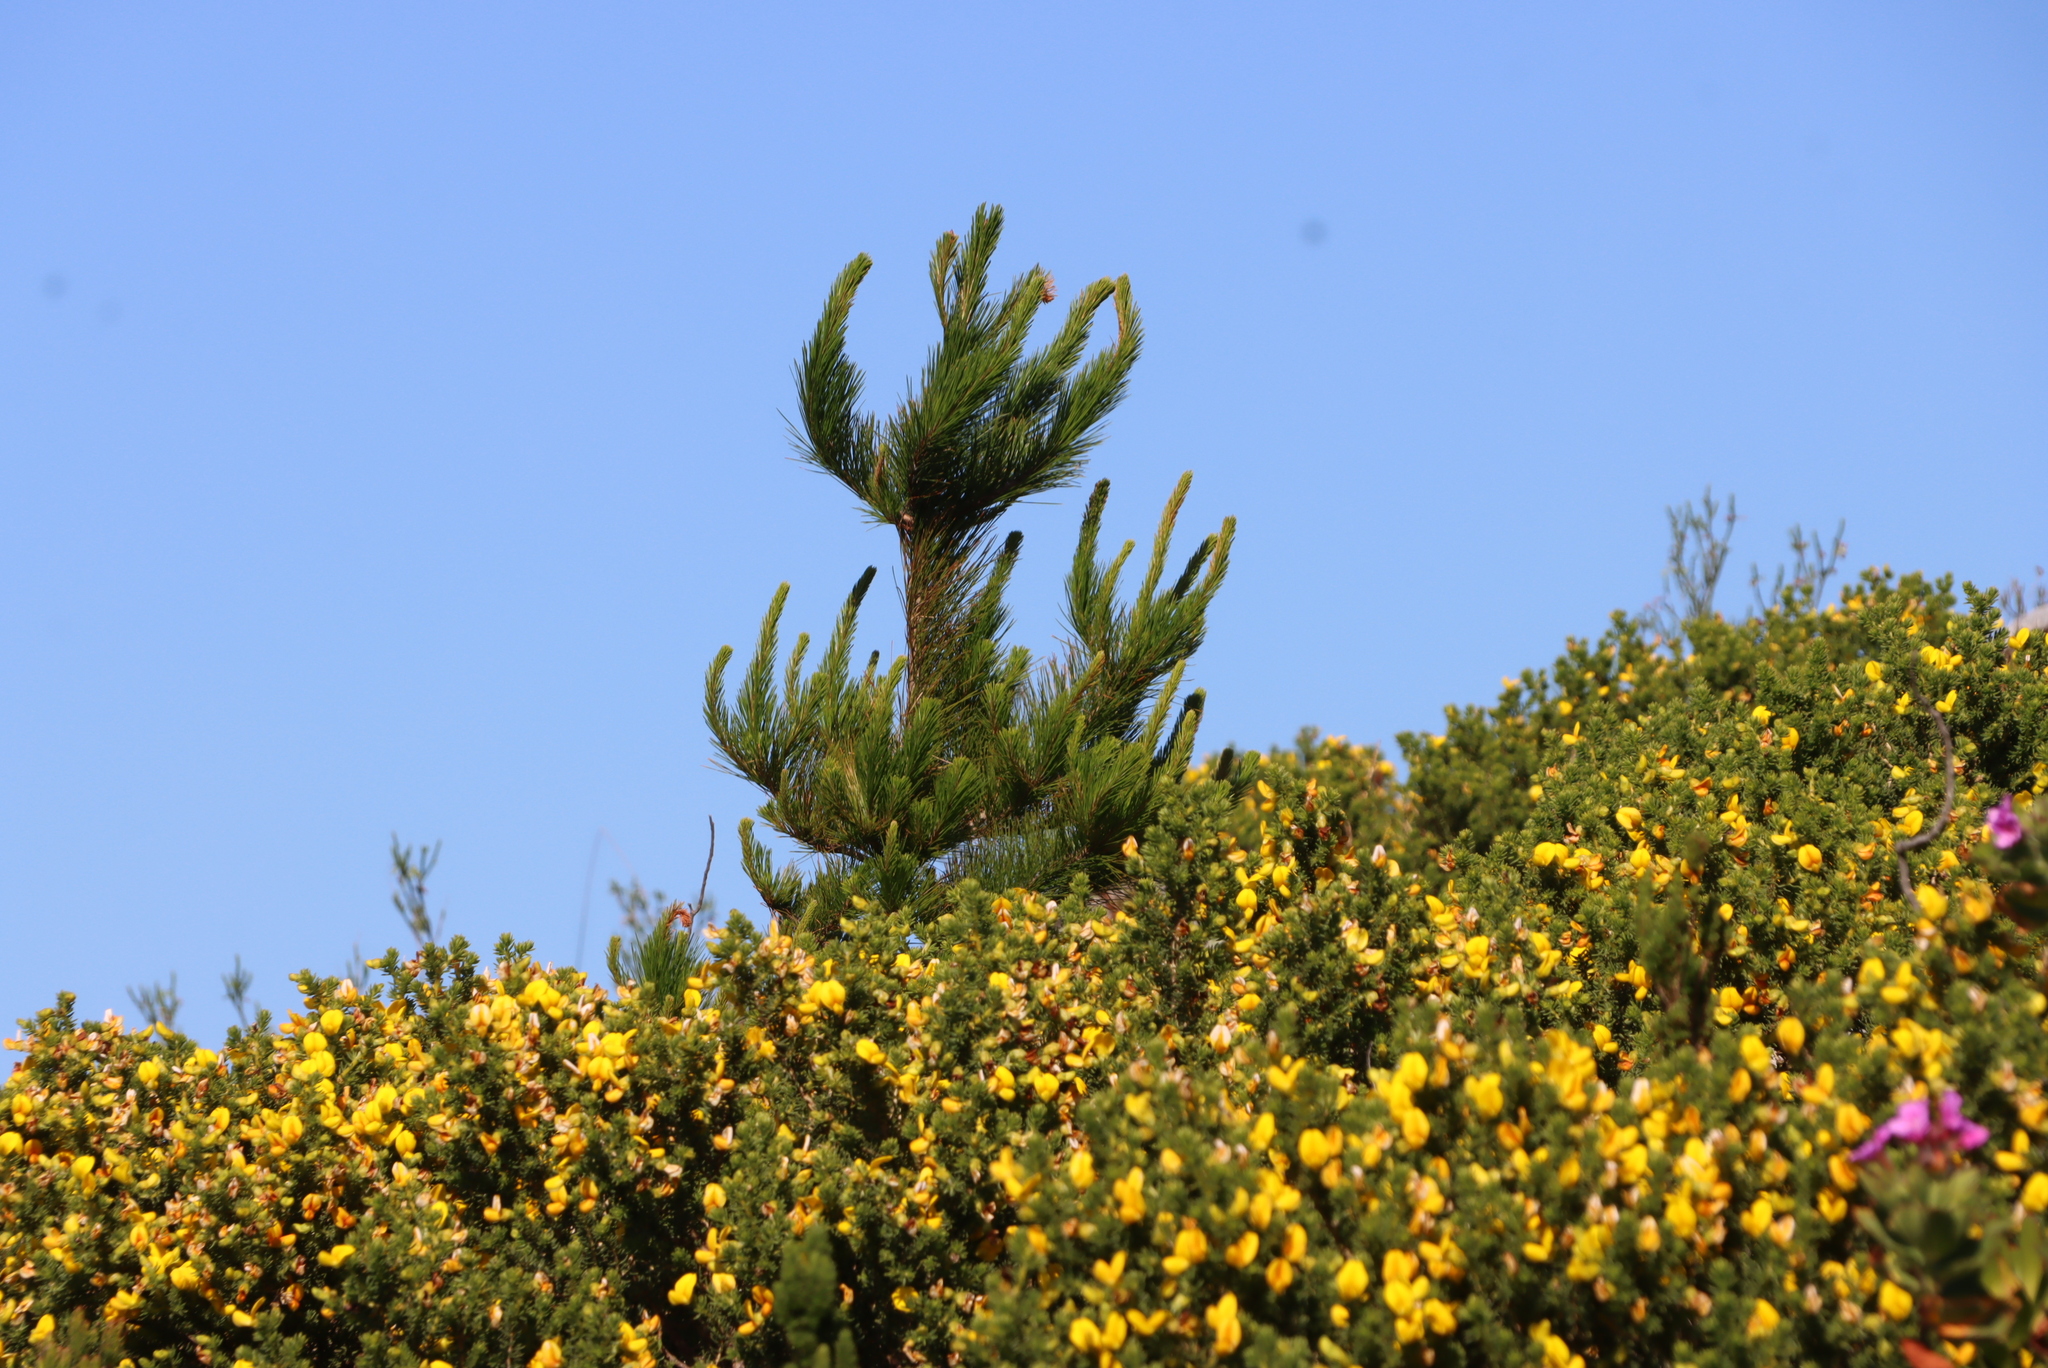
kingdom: Plantae
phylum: Tracheophyta
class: Pinopsida
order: Pinales
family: Pinaceae
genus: Pinus
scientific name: Pinus radiata
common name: Monterey pine
